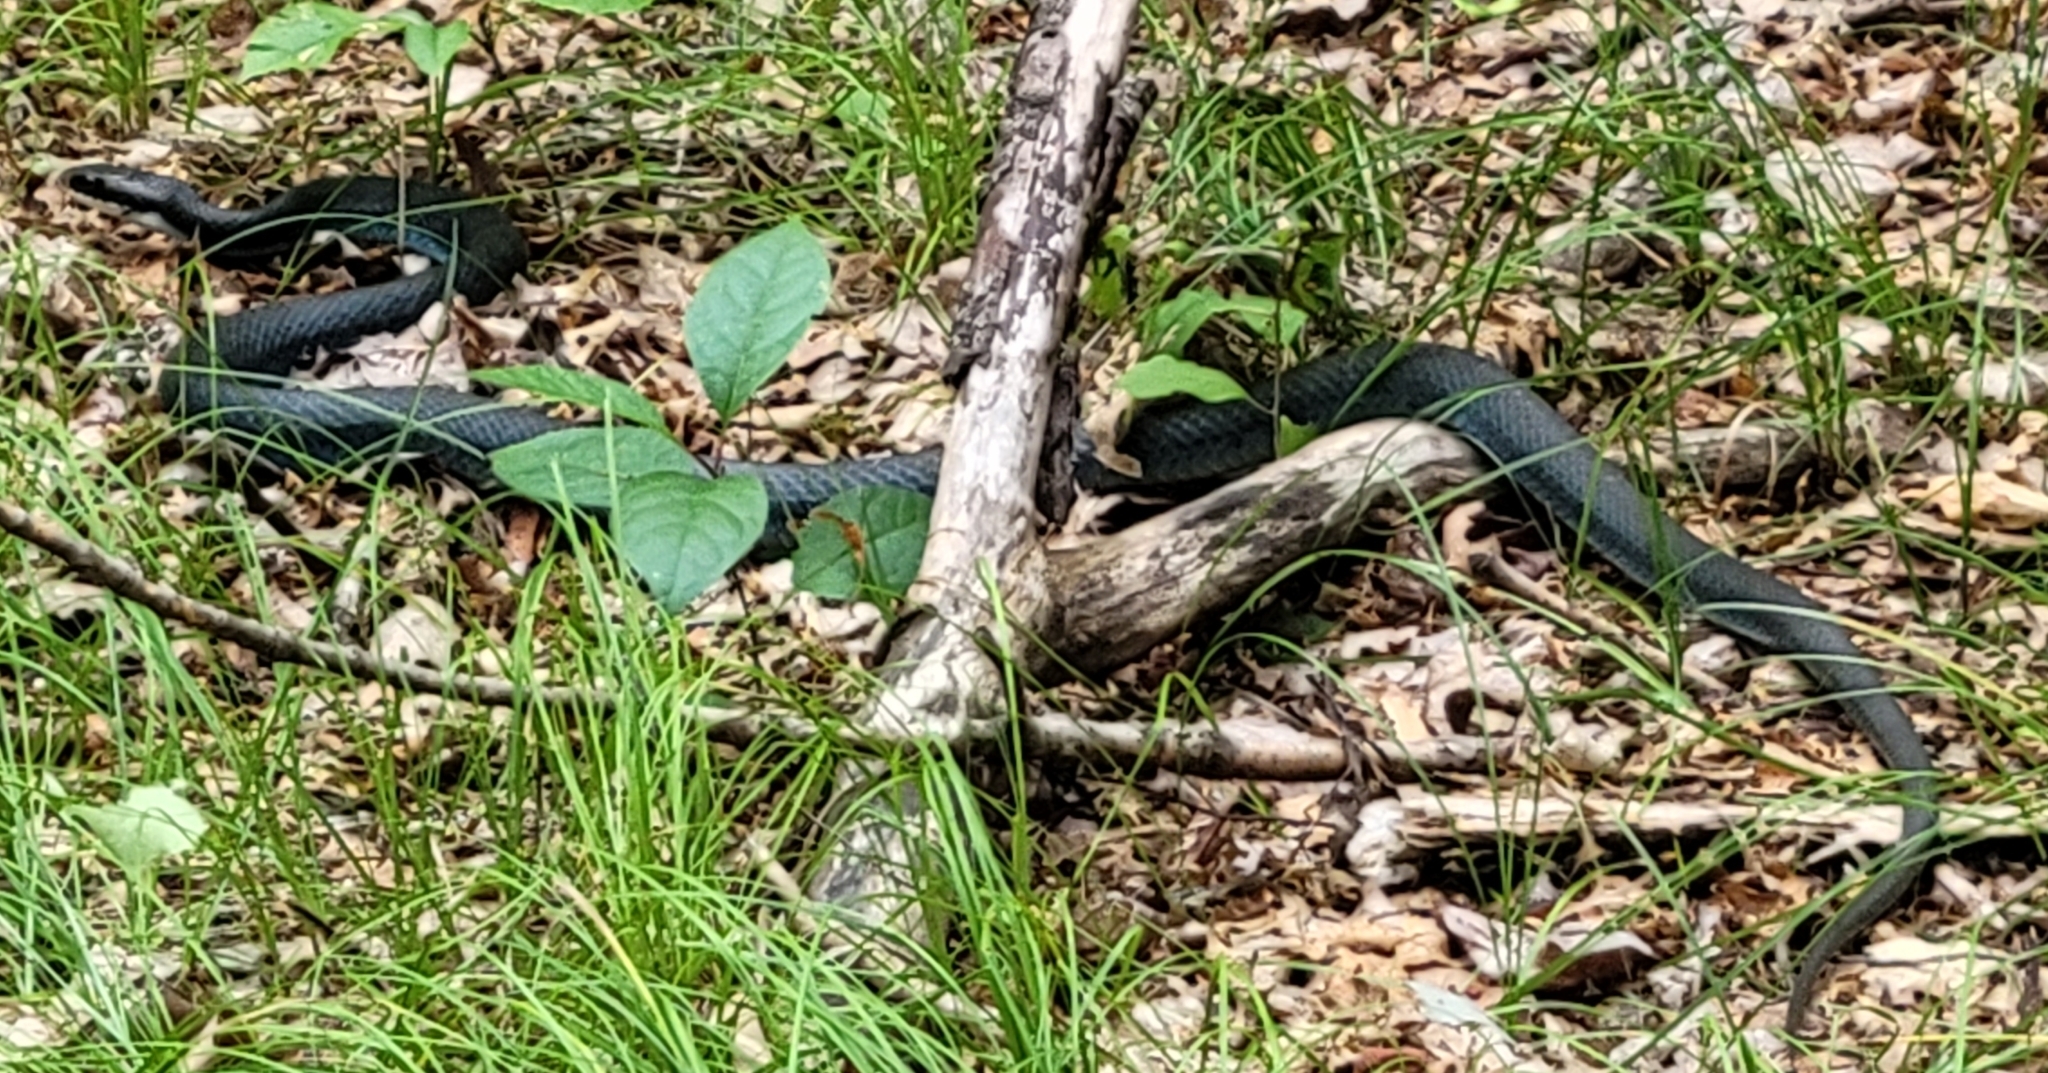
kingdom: Animalia
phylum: Chordata
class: Squamata
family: Colubridae
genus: Coluber
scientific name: Coluber constrictor
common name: Eastern racer
